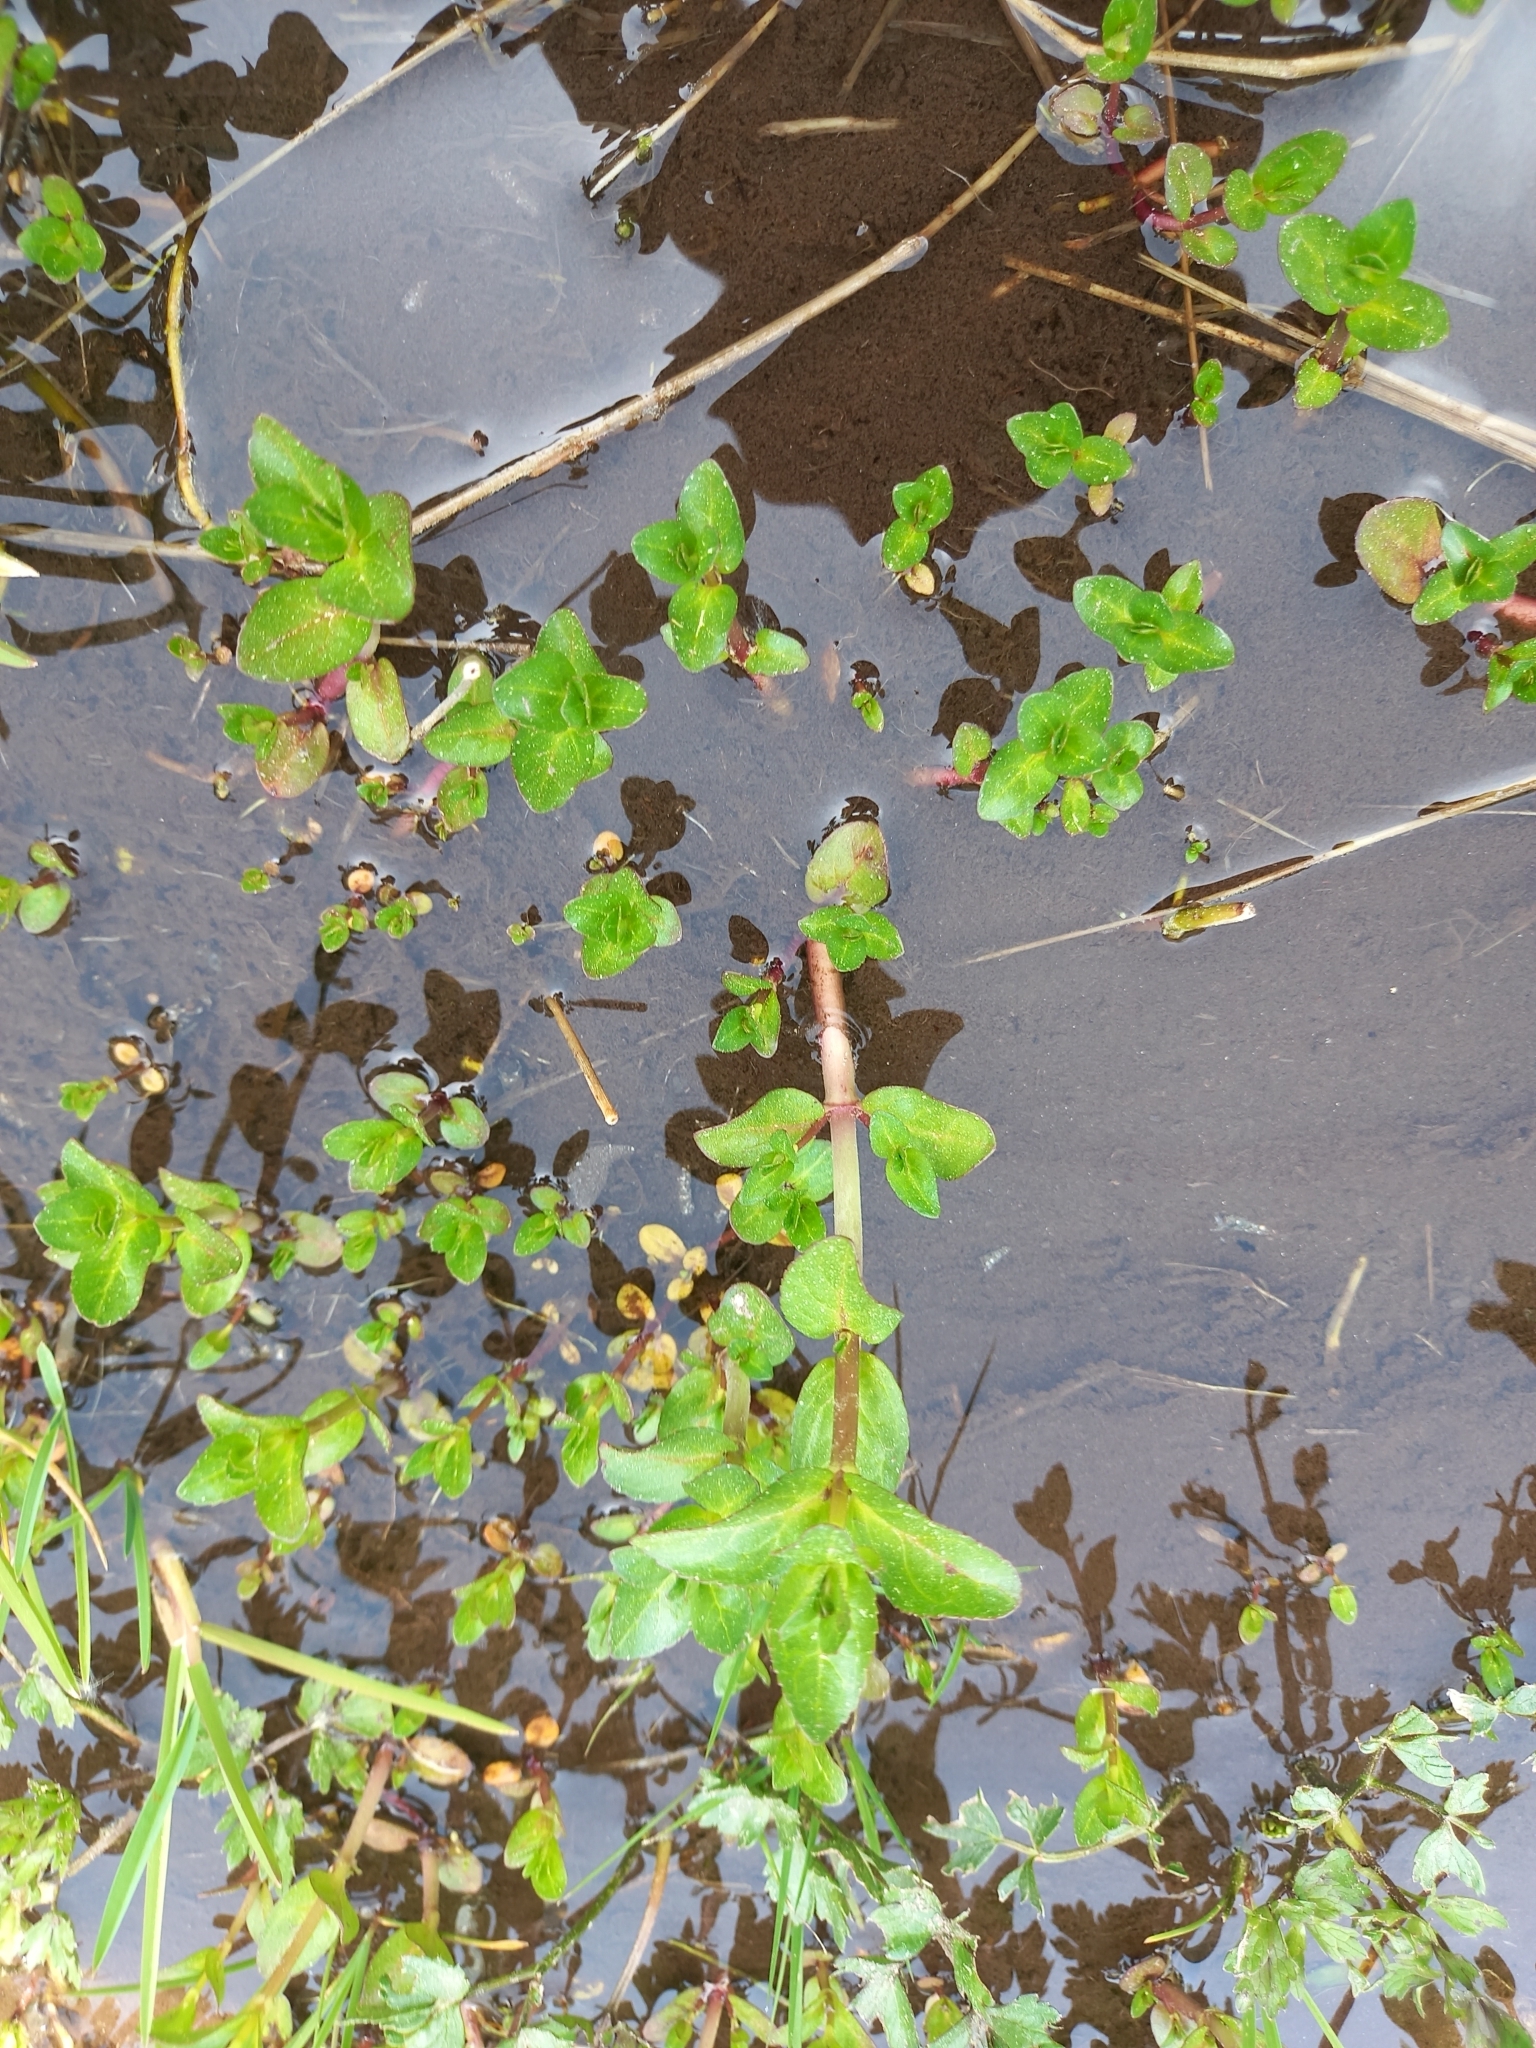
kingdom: Plantae
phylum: Tracheophyta
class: Magnoliopsida
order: Lamiales
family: Plantaginaceae
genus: Veronica
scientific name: Veronica beccabunga
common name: Brooklime
